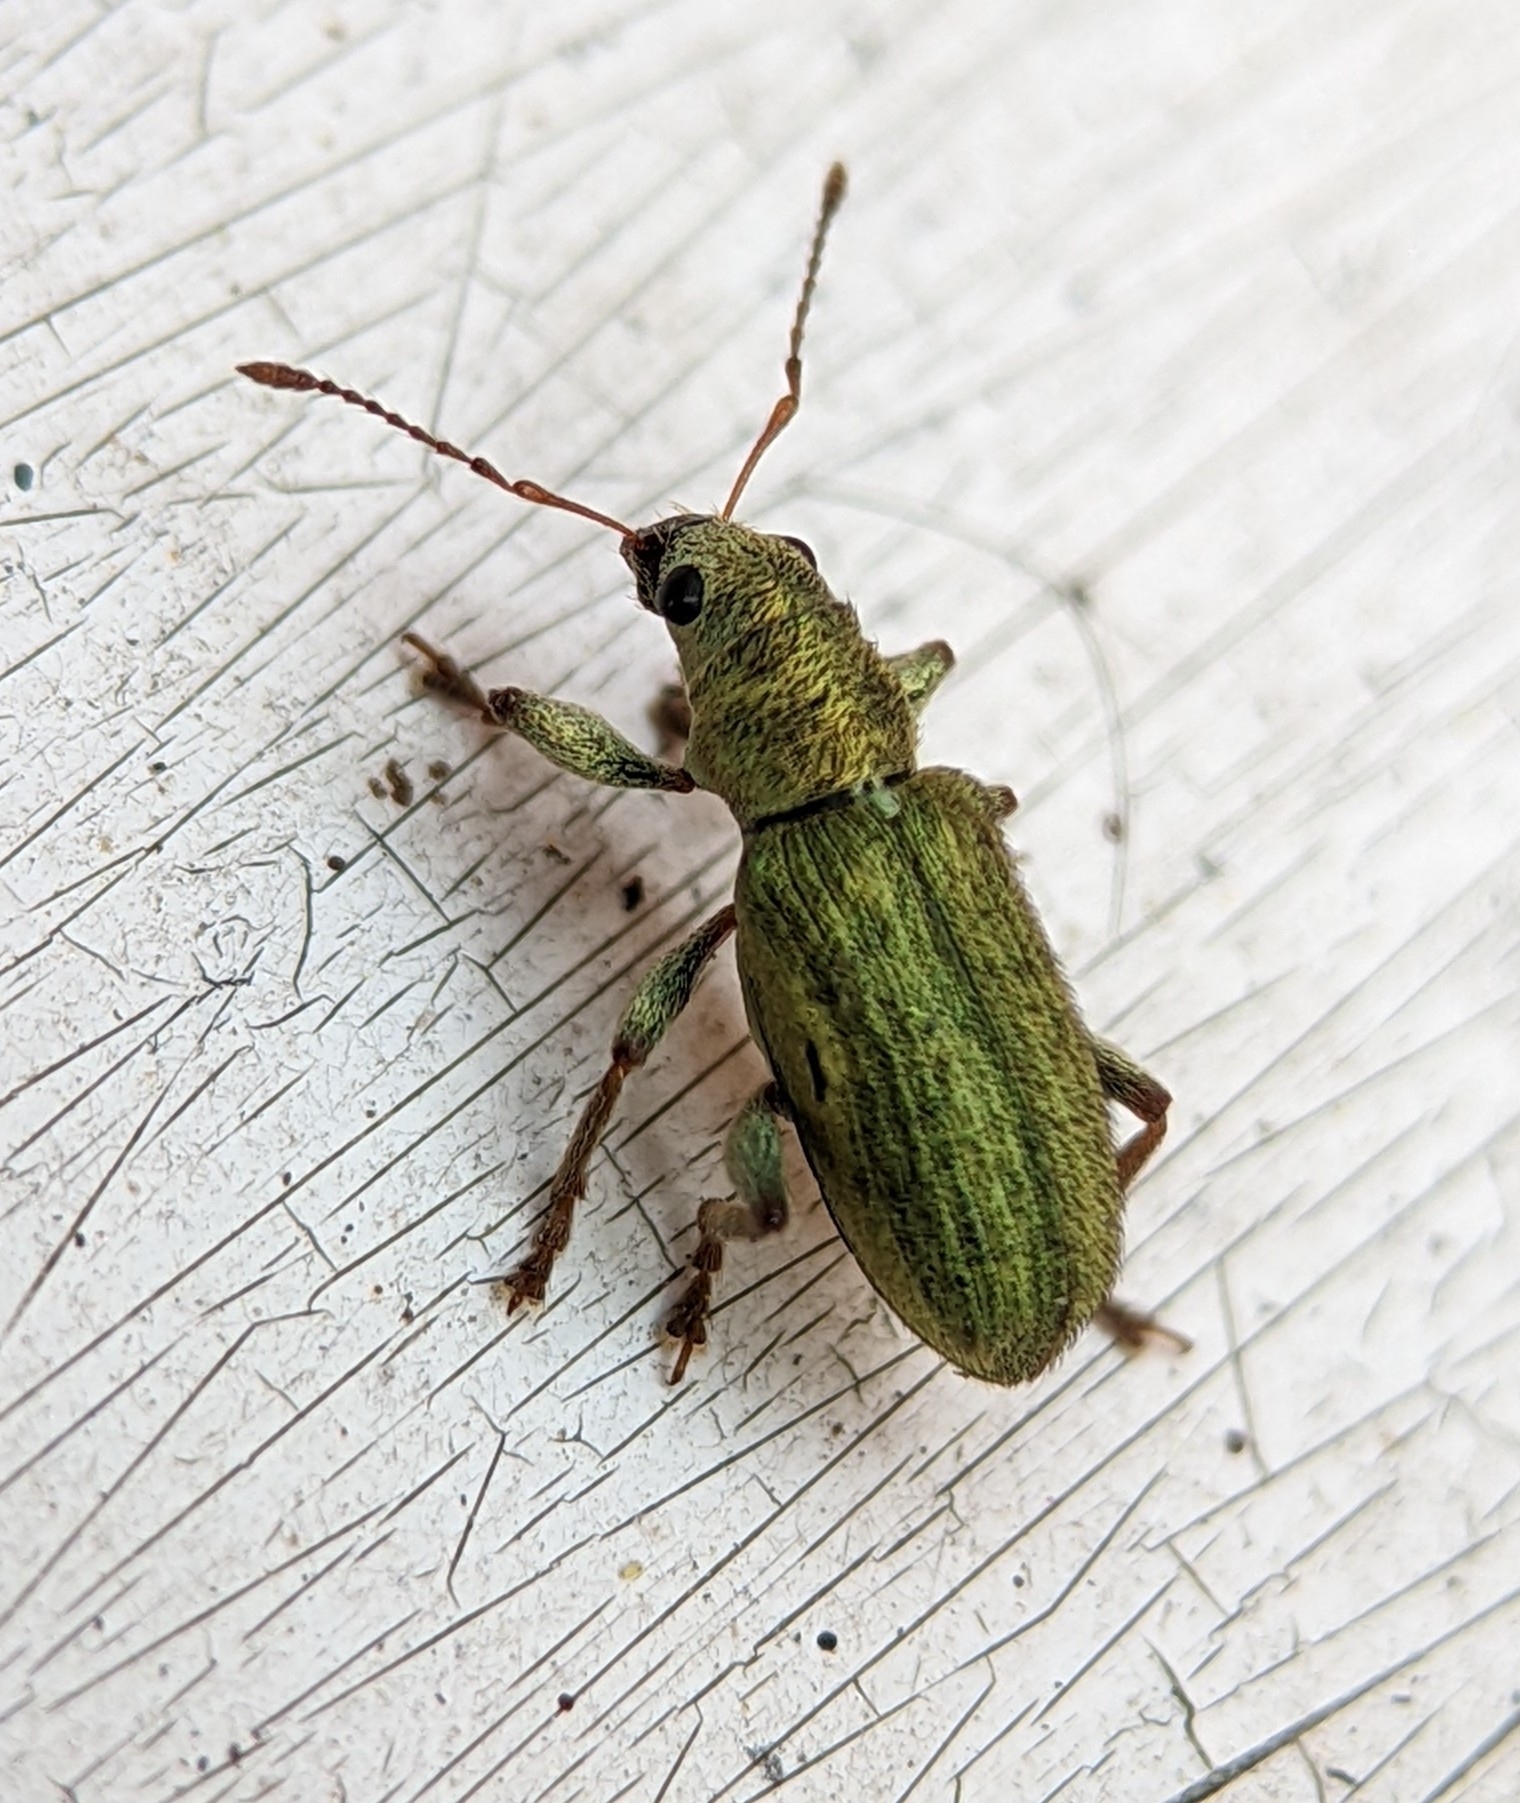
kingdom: Animalia
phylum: Arthropoda
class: Insecta
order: Coleoptera
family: Curculionidae
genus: Pachyrhinus
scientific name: Pachyrhinus lethierryi
